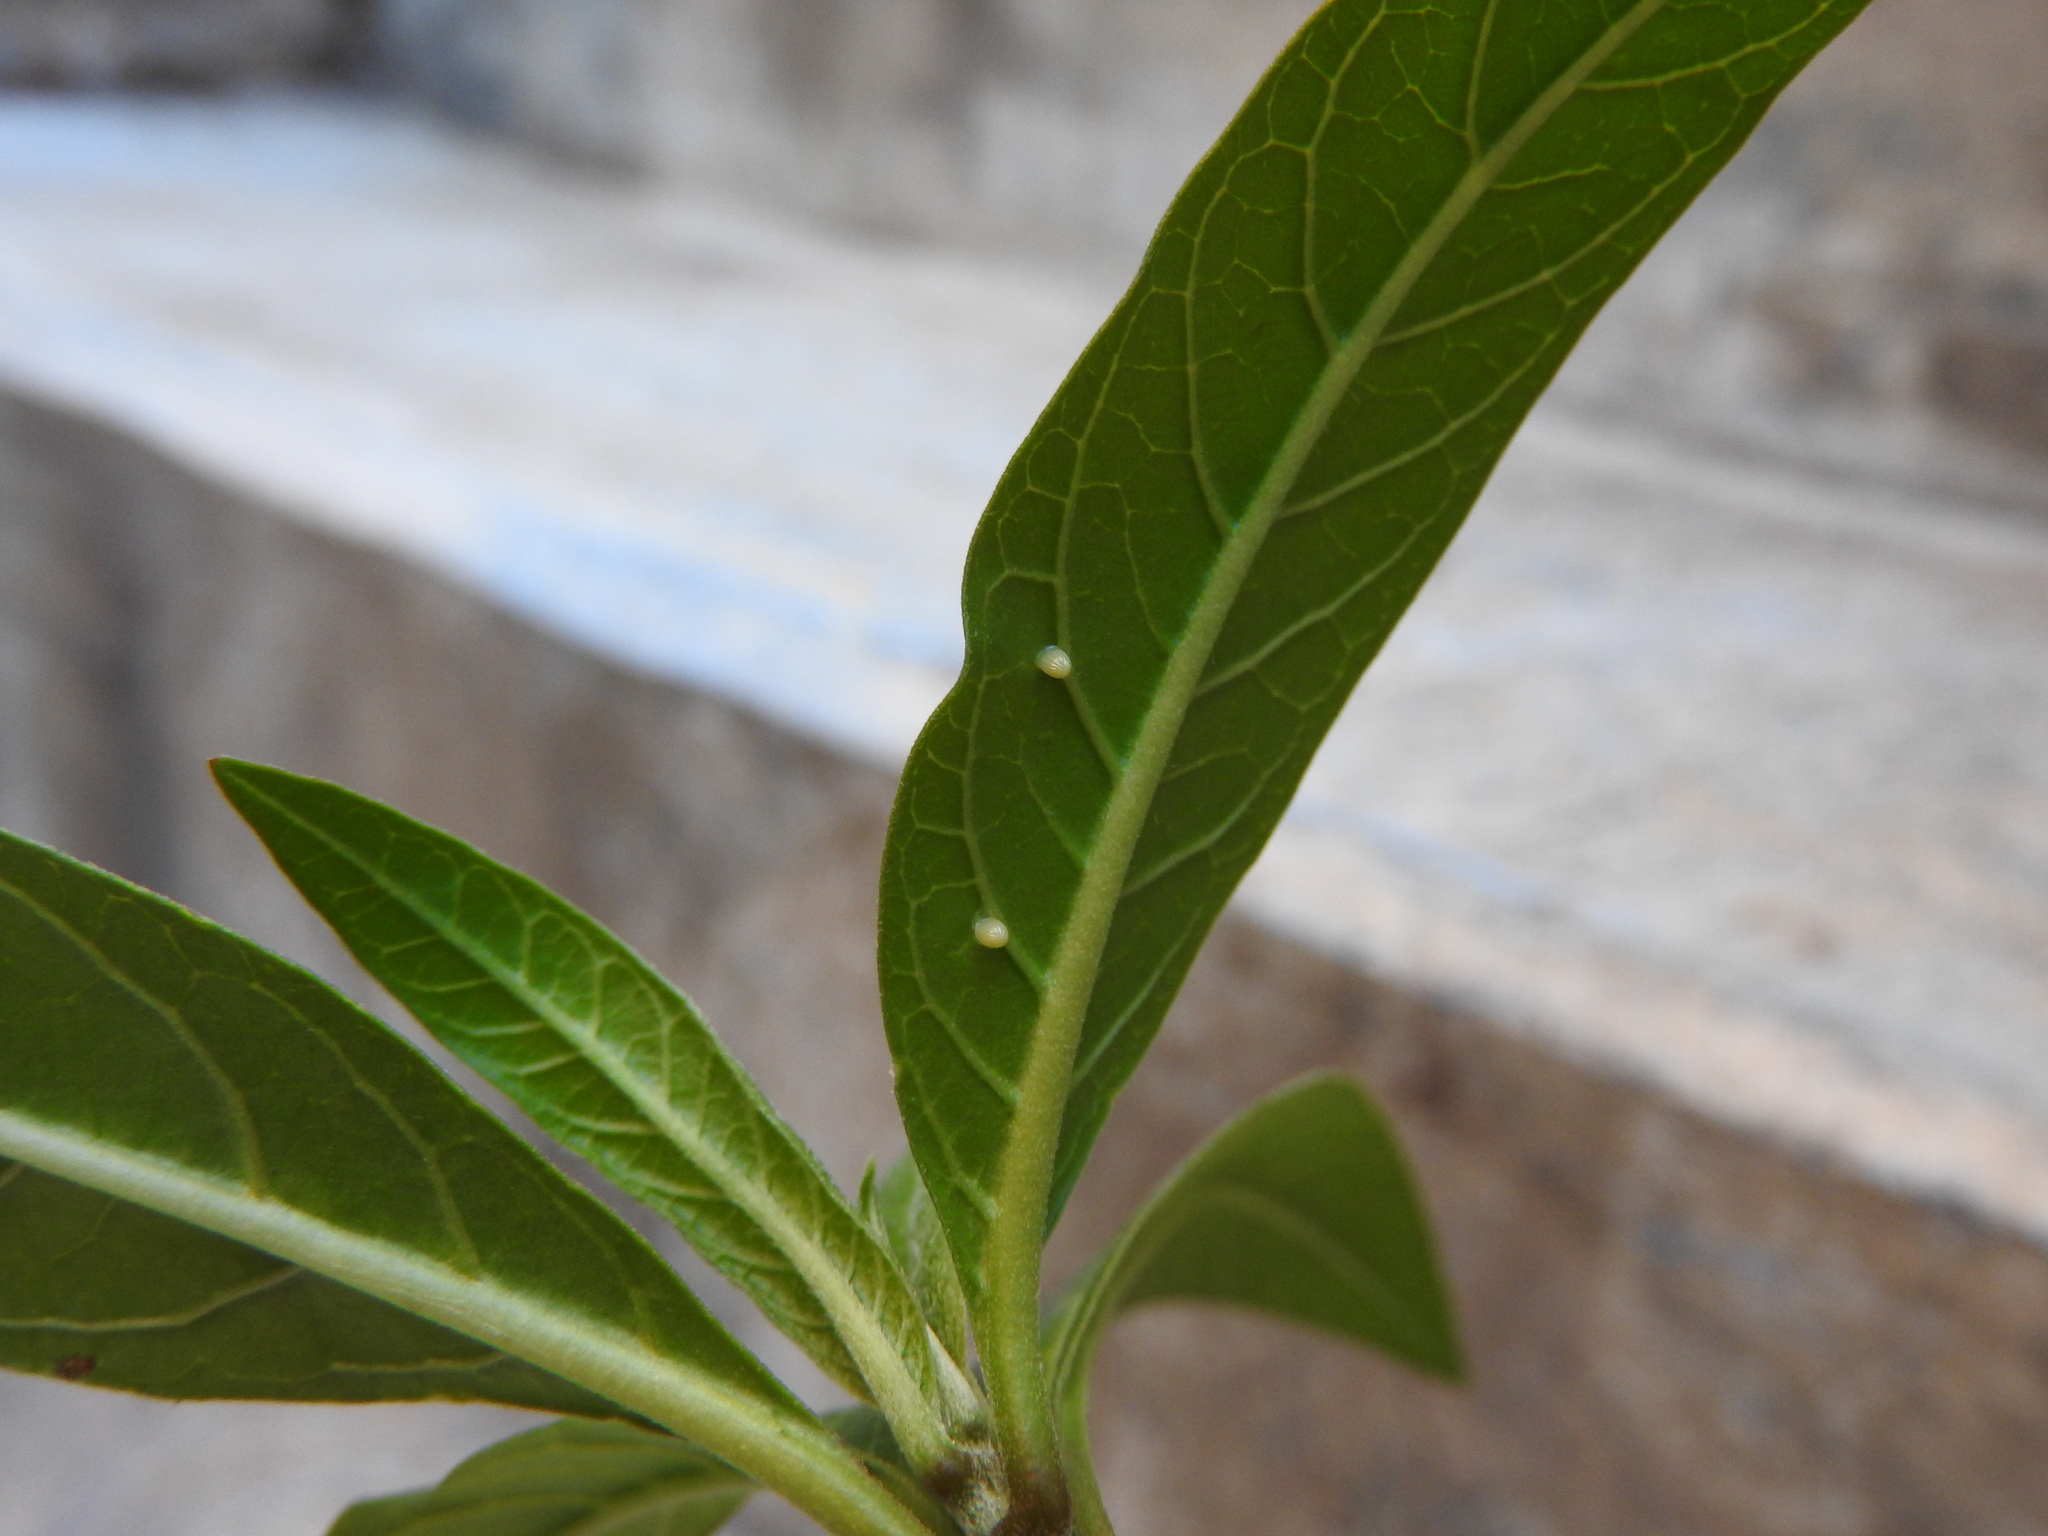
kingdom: Animalia
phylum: Arthropoda
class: Insecta
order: Lepidoptera
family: Nymphalidae
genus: Danaus
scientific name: Danaus plexippus
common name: Monarch
